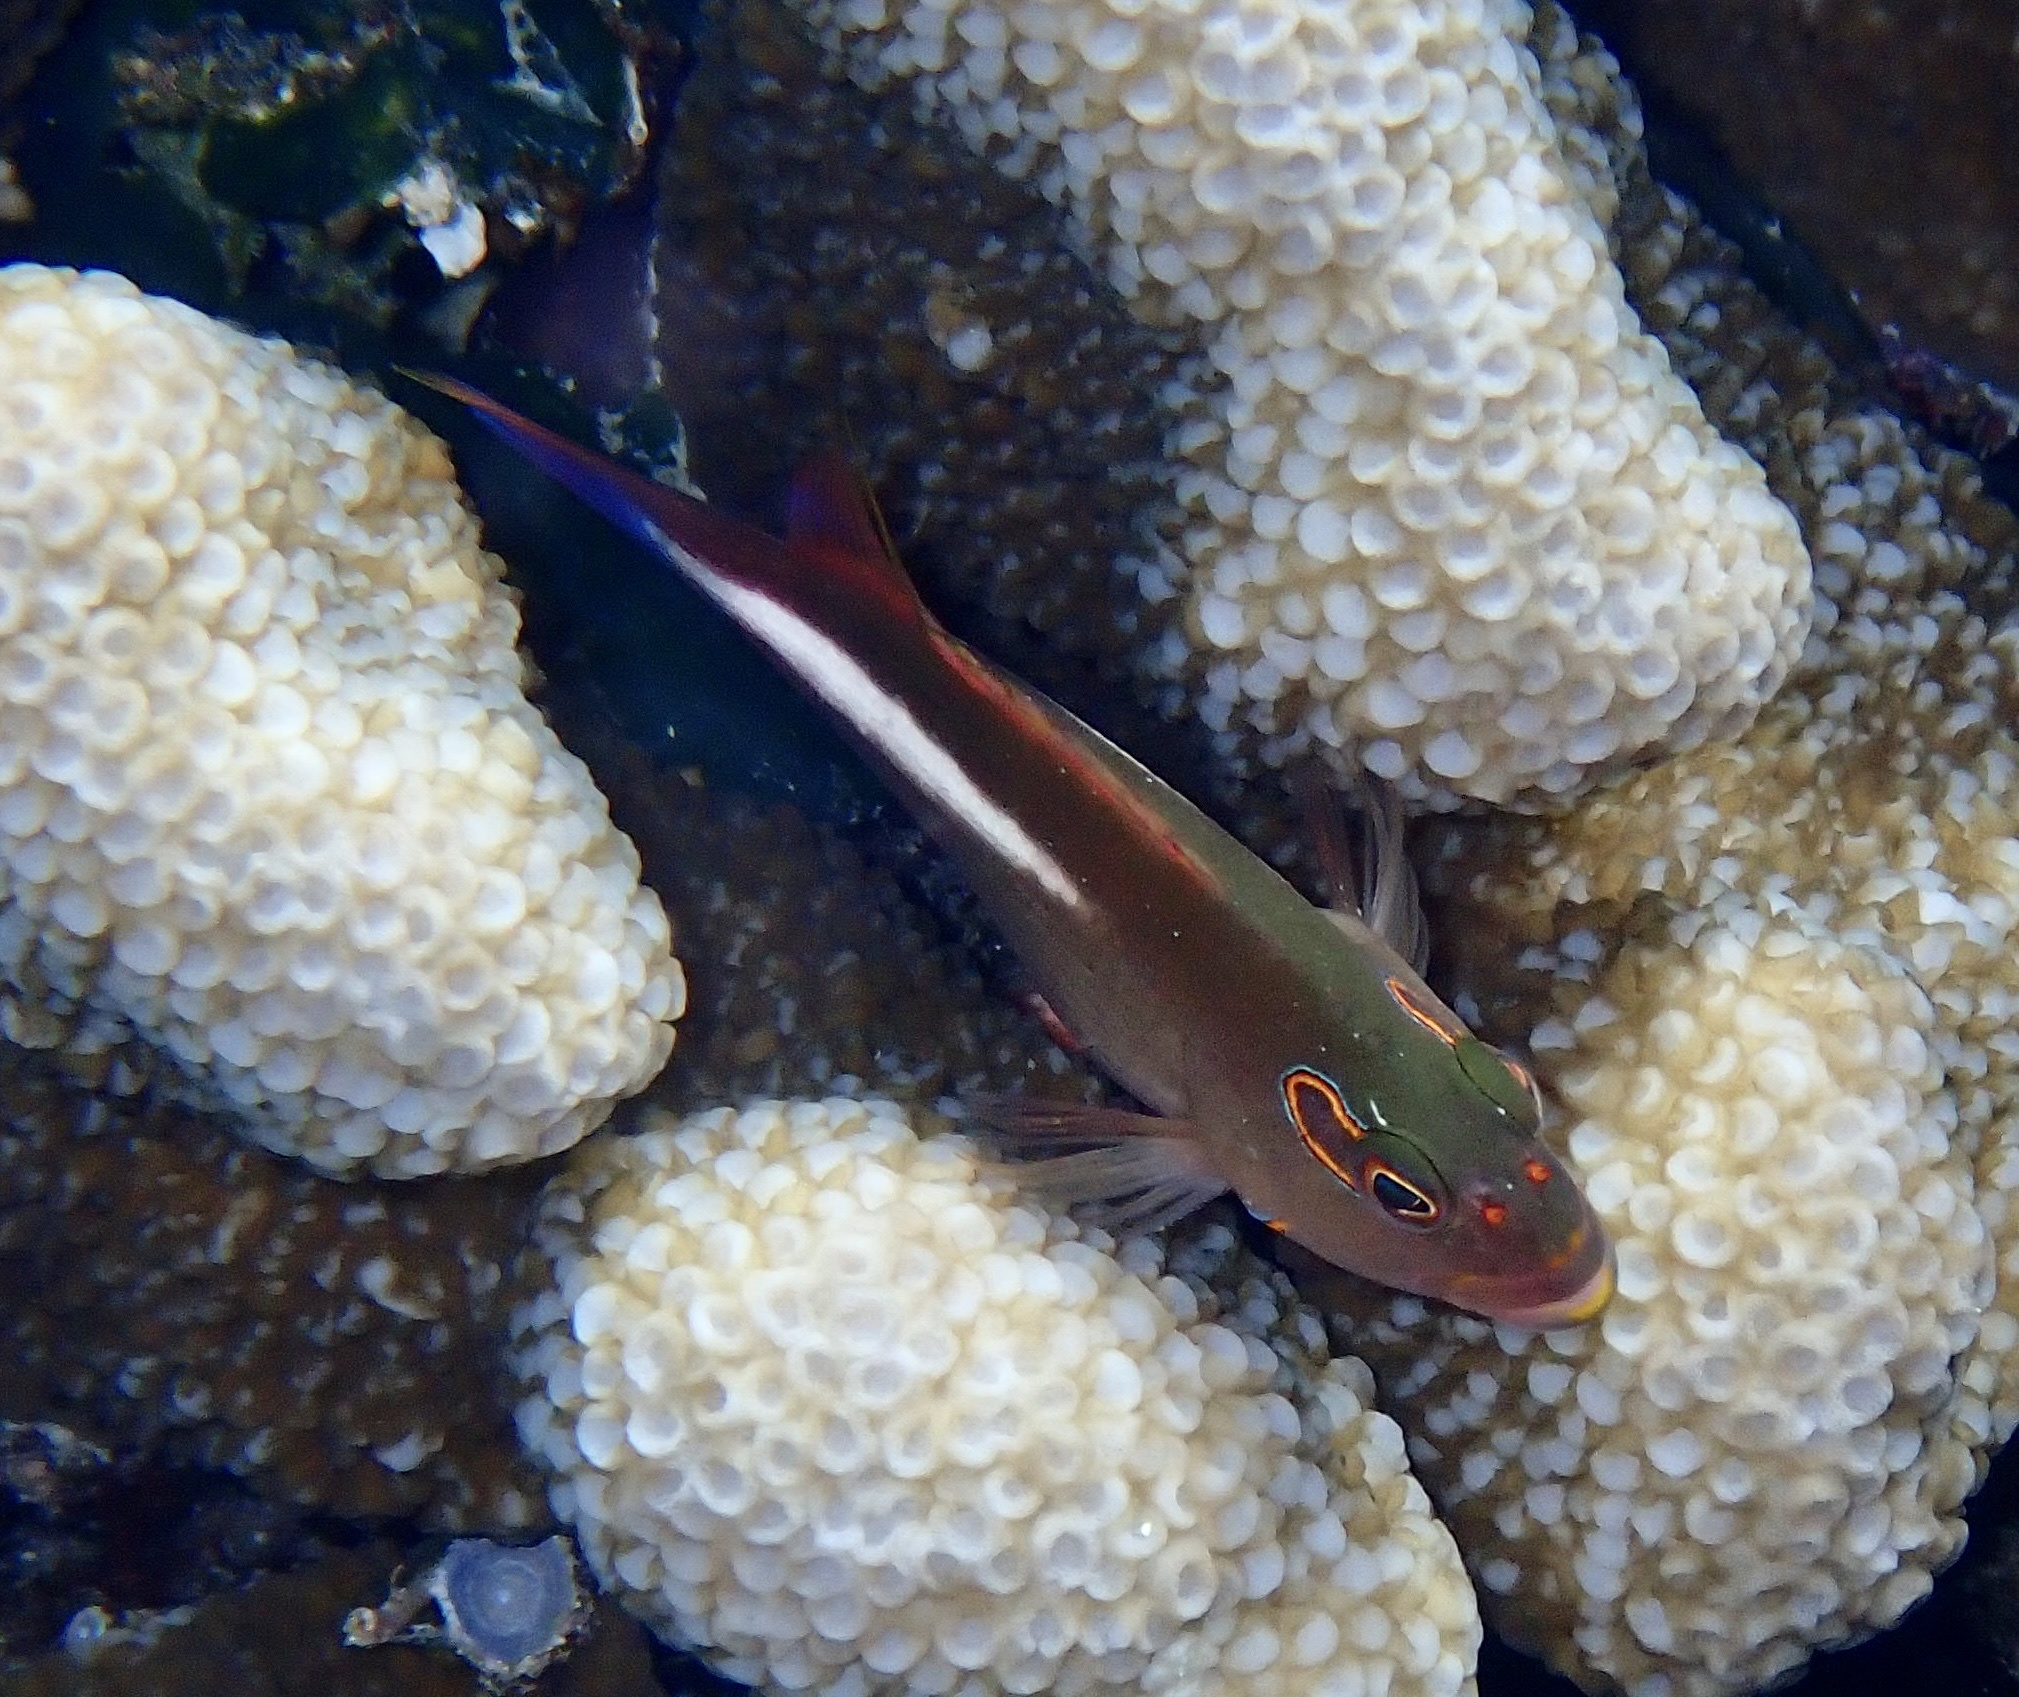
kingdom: Animalia
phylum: Chordata
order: Perciformes
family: Cirrhitidae
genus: Paracirrhites
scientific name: Paracirrhites arcatus
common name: Arc-eye hawkfish
